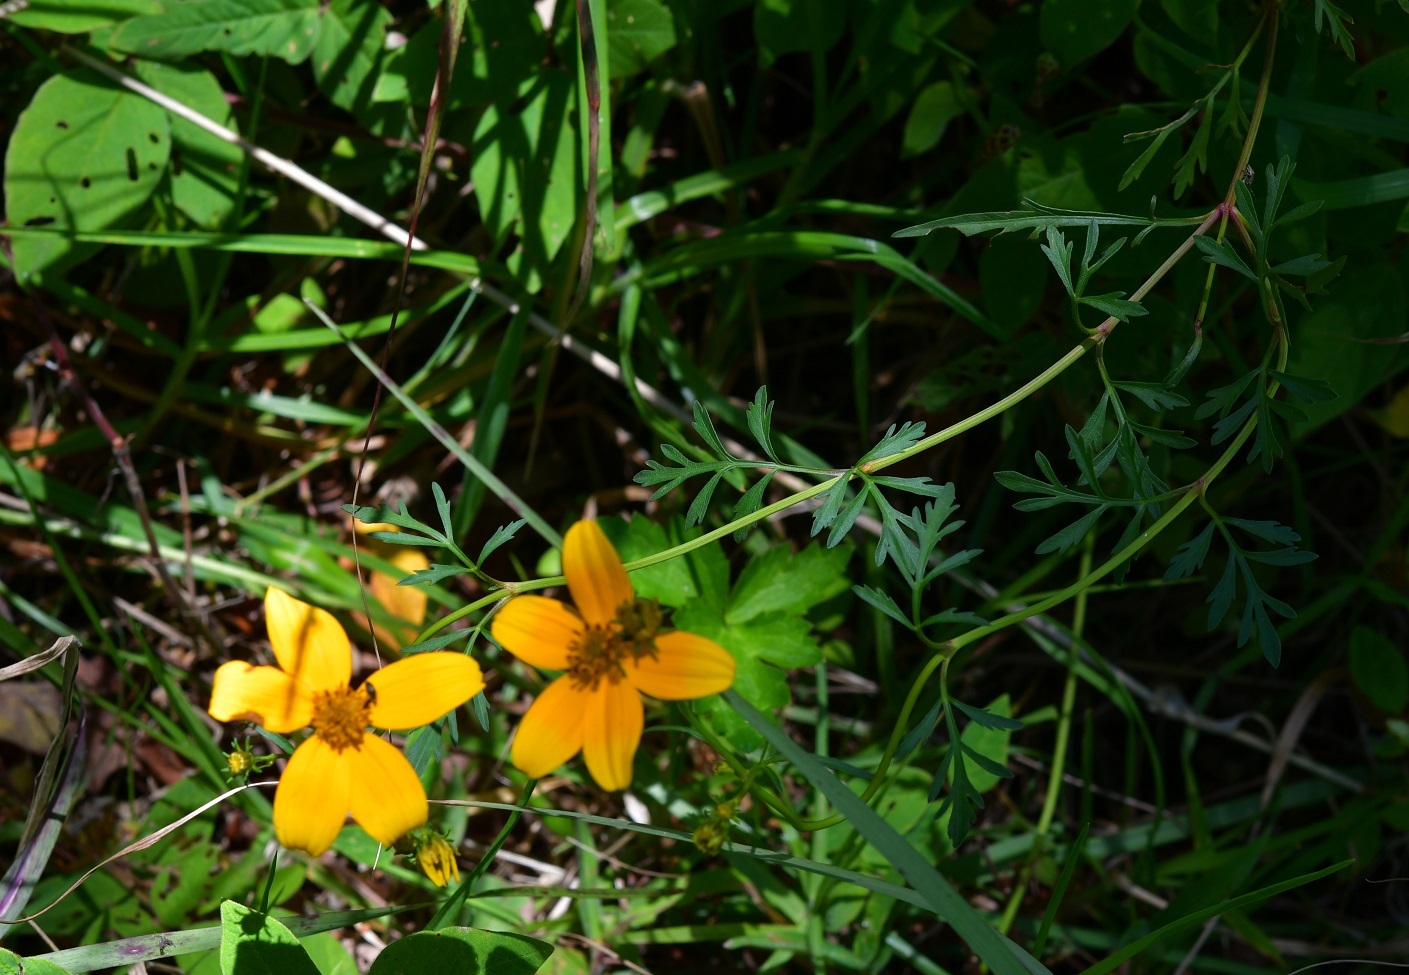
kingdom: Plantae
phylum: Tracheophyta
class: Magnoliopsida
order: Asterales
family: Asteraceae
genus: Bidens
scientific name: Bidens triplinervia
